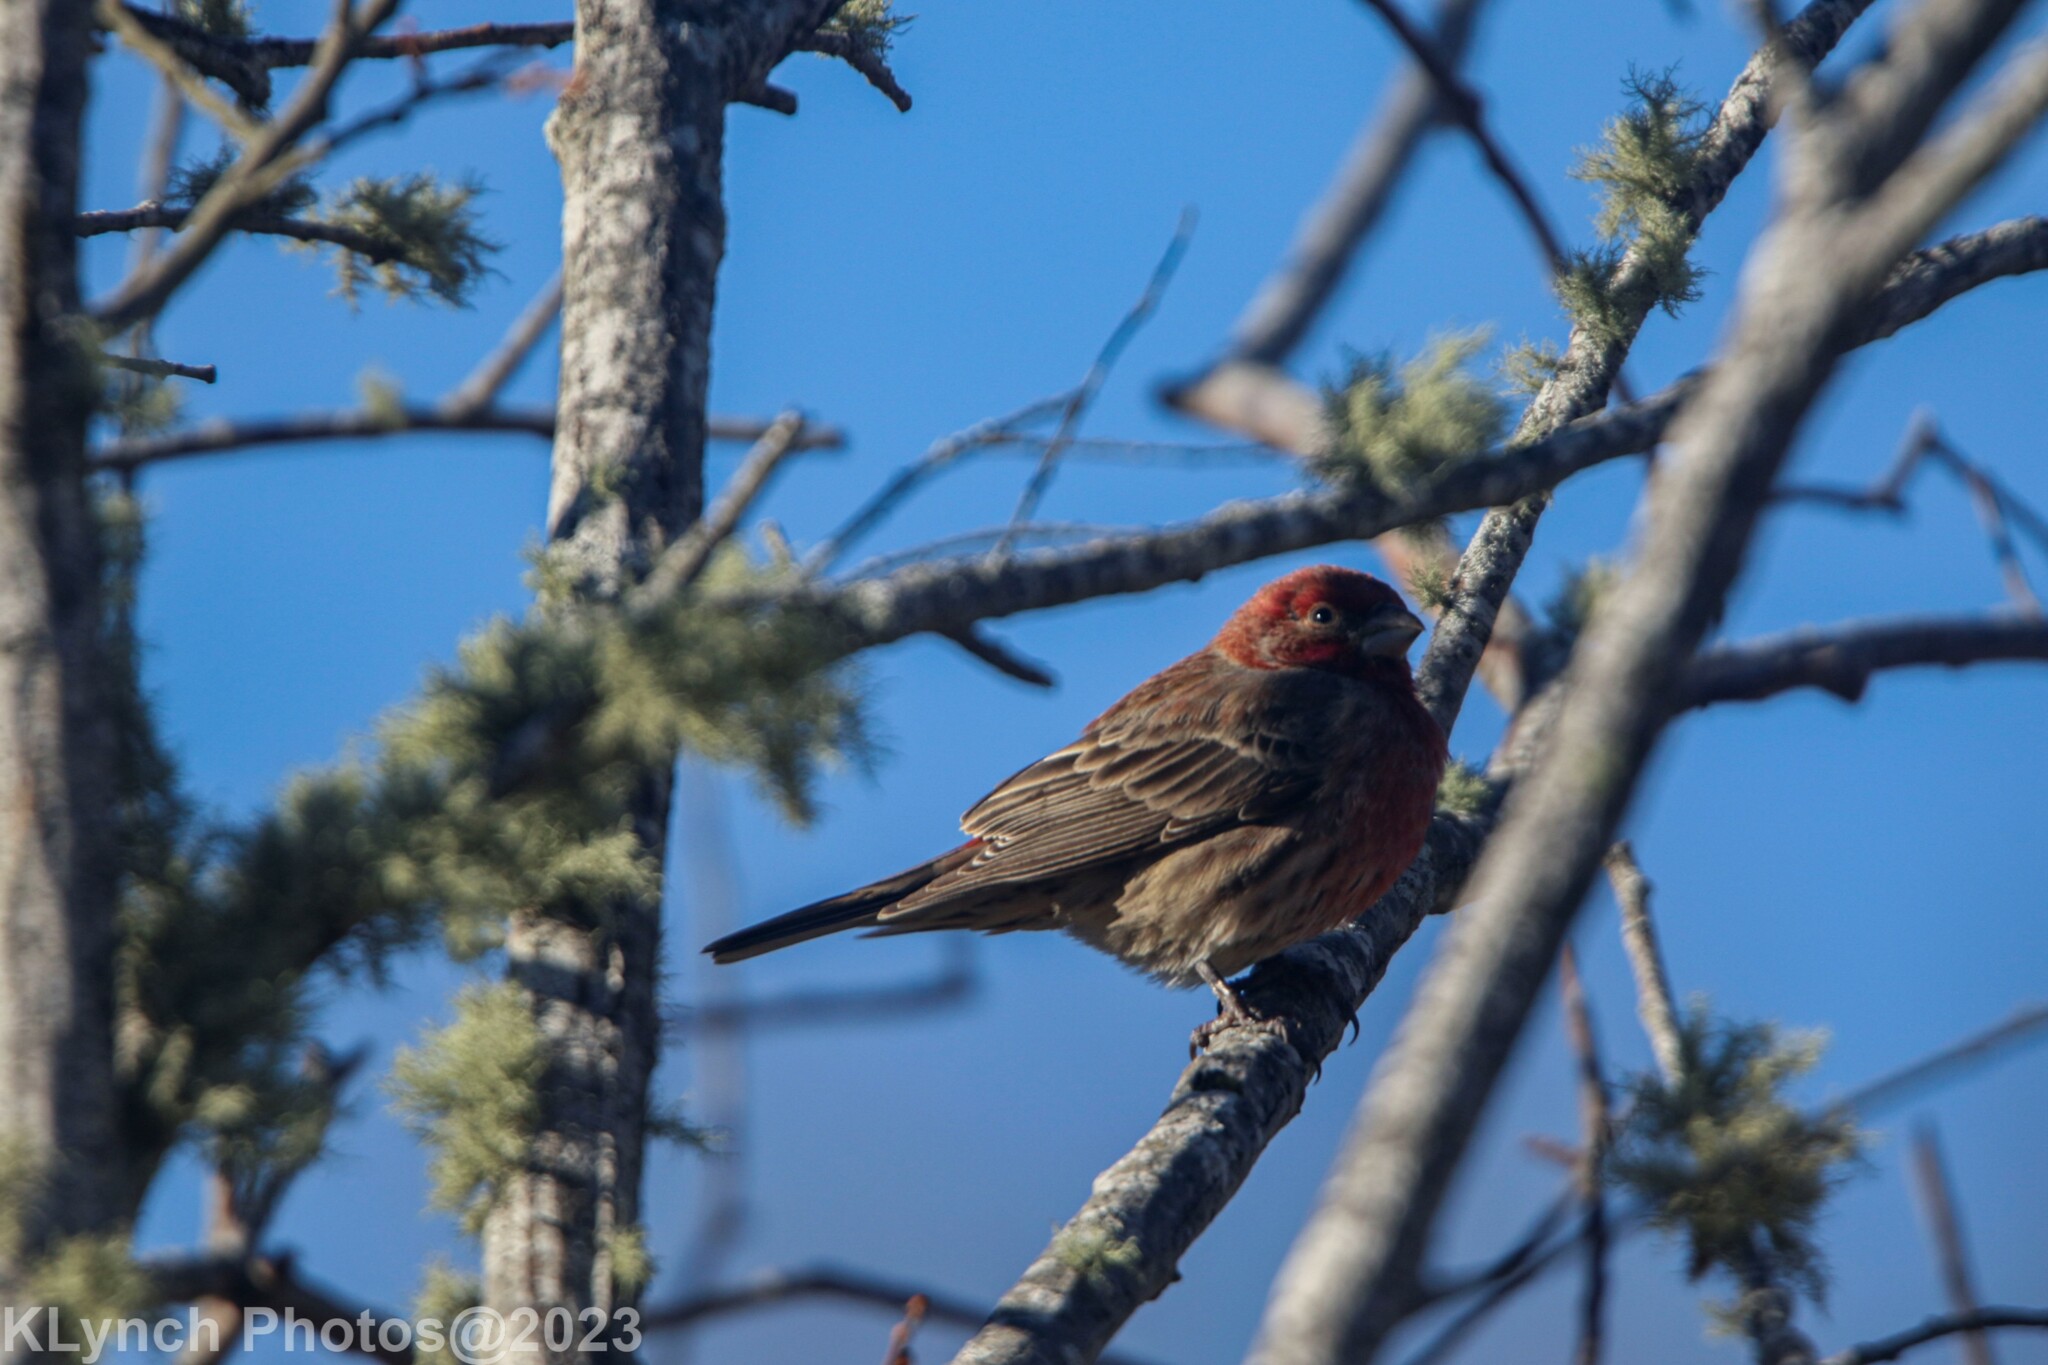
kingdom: Animalia
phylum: Chordata
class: Aves
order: Passeriformes
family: Fringillidae
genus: Haemorhous
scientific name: Haemorhous mexicanus
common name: House finch
